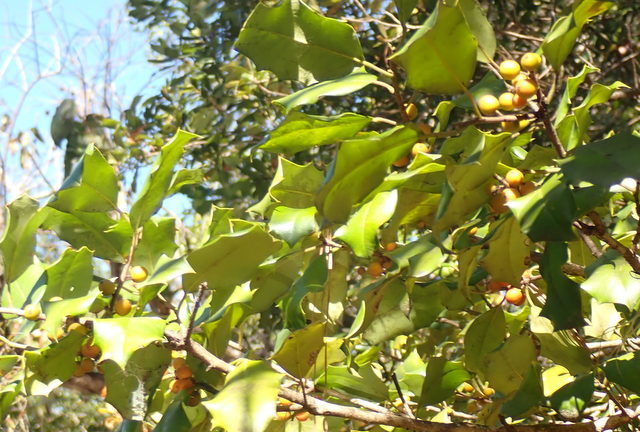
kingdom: Plantae
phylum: Tracheophyta
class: Magnoliopsida
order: Aquifoliales
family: Aquifoliaceae
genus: Ilex
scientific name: Ilex opaca
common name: American holly
